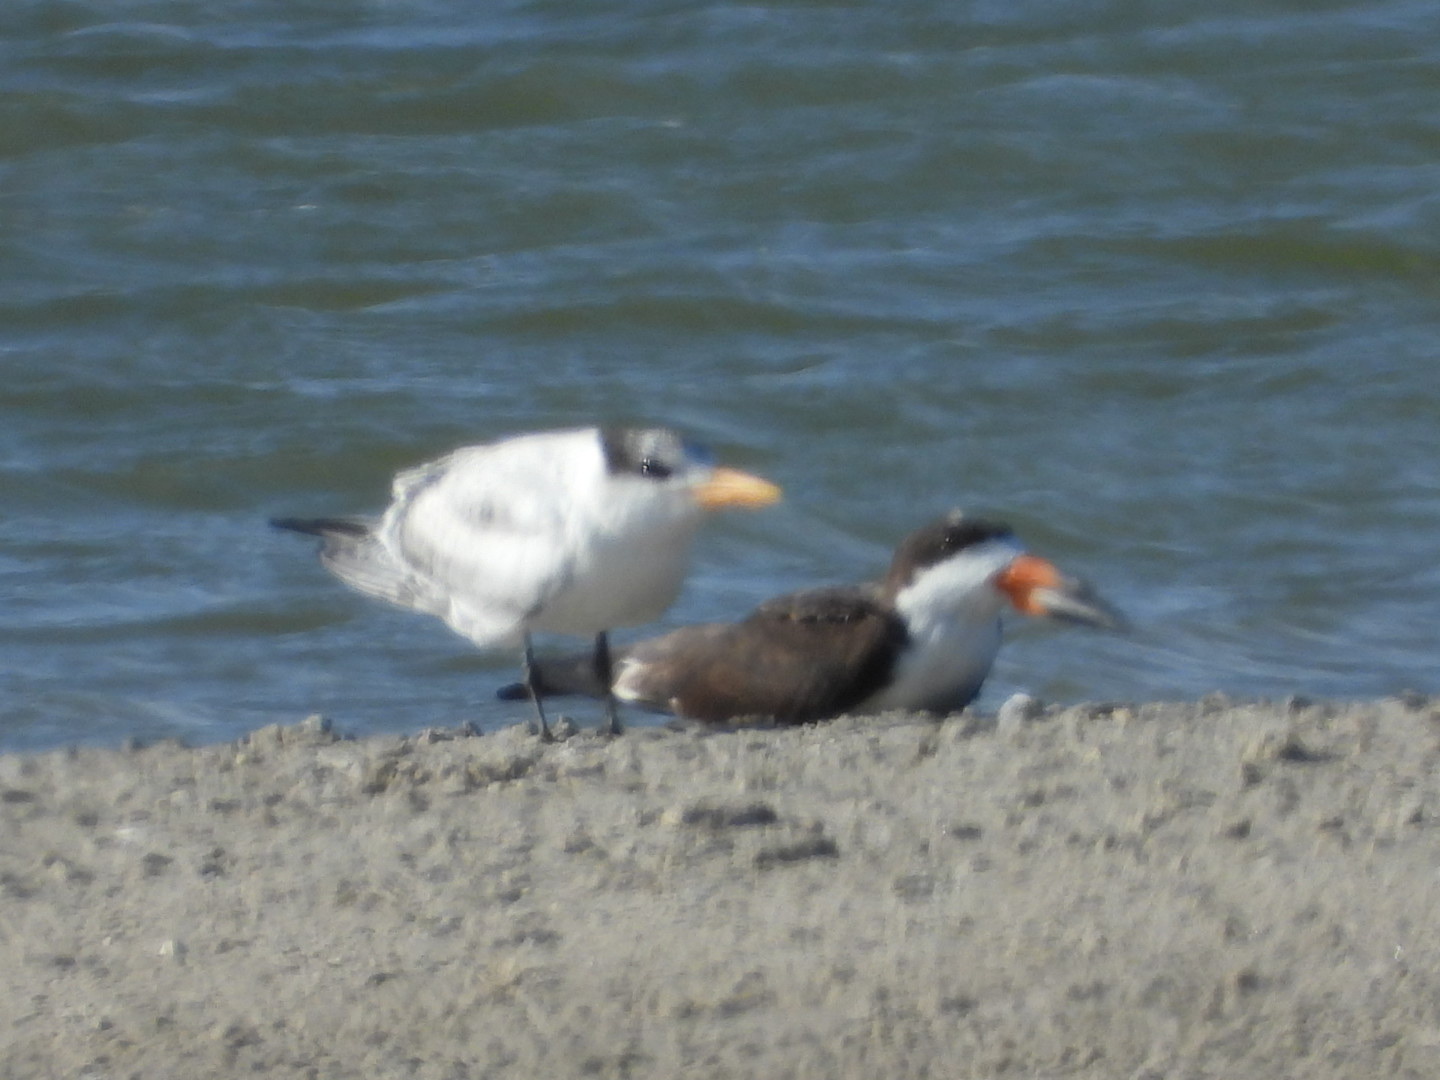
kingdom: Animalia
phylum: Chordata
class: Aves
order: Charadriiformes
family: Laridae
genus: Thalasseus
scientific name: Thalasseus maximus
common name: Royal tern
